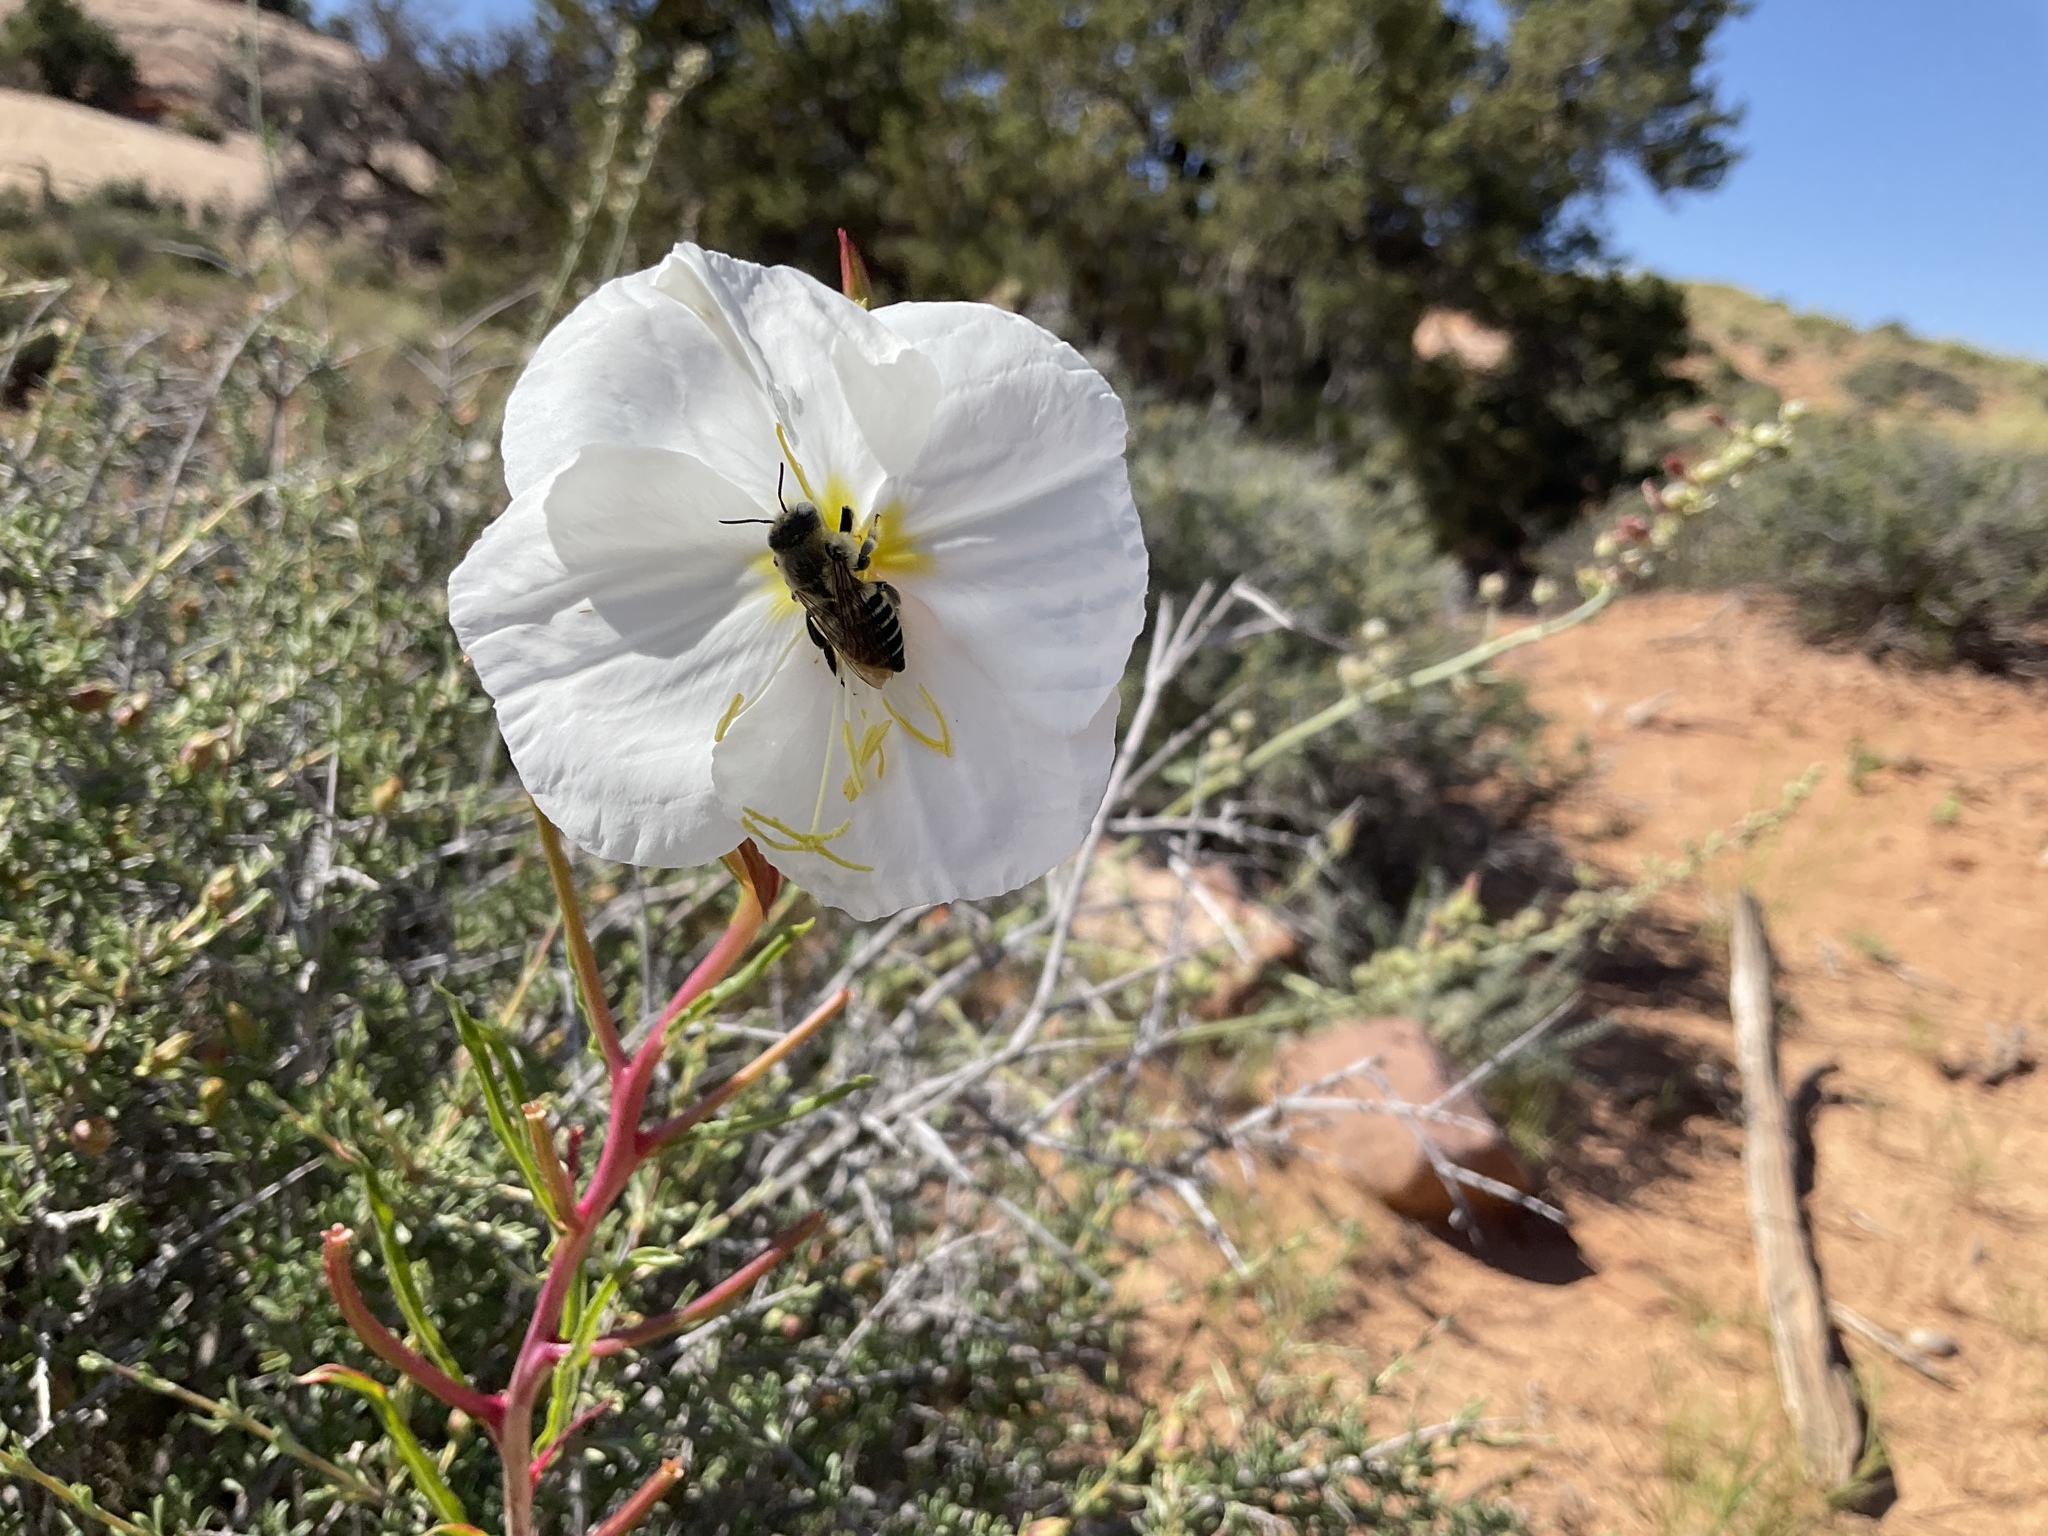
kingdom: Plantae
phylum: Tracheophyta
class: Magnoliopsida
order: Myrtales
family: Onagraceae
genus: Oenothera
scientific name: Oenothera pallida
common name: Pale evening-primrose
